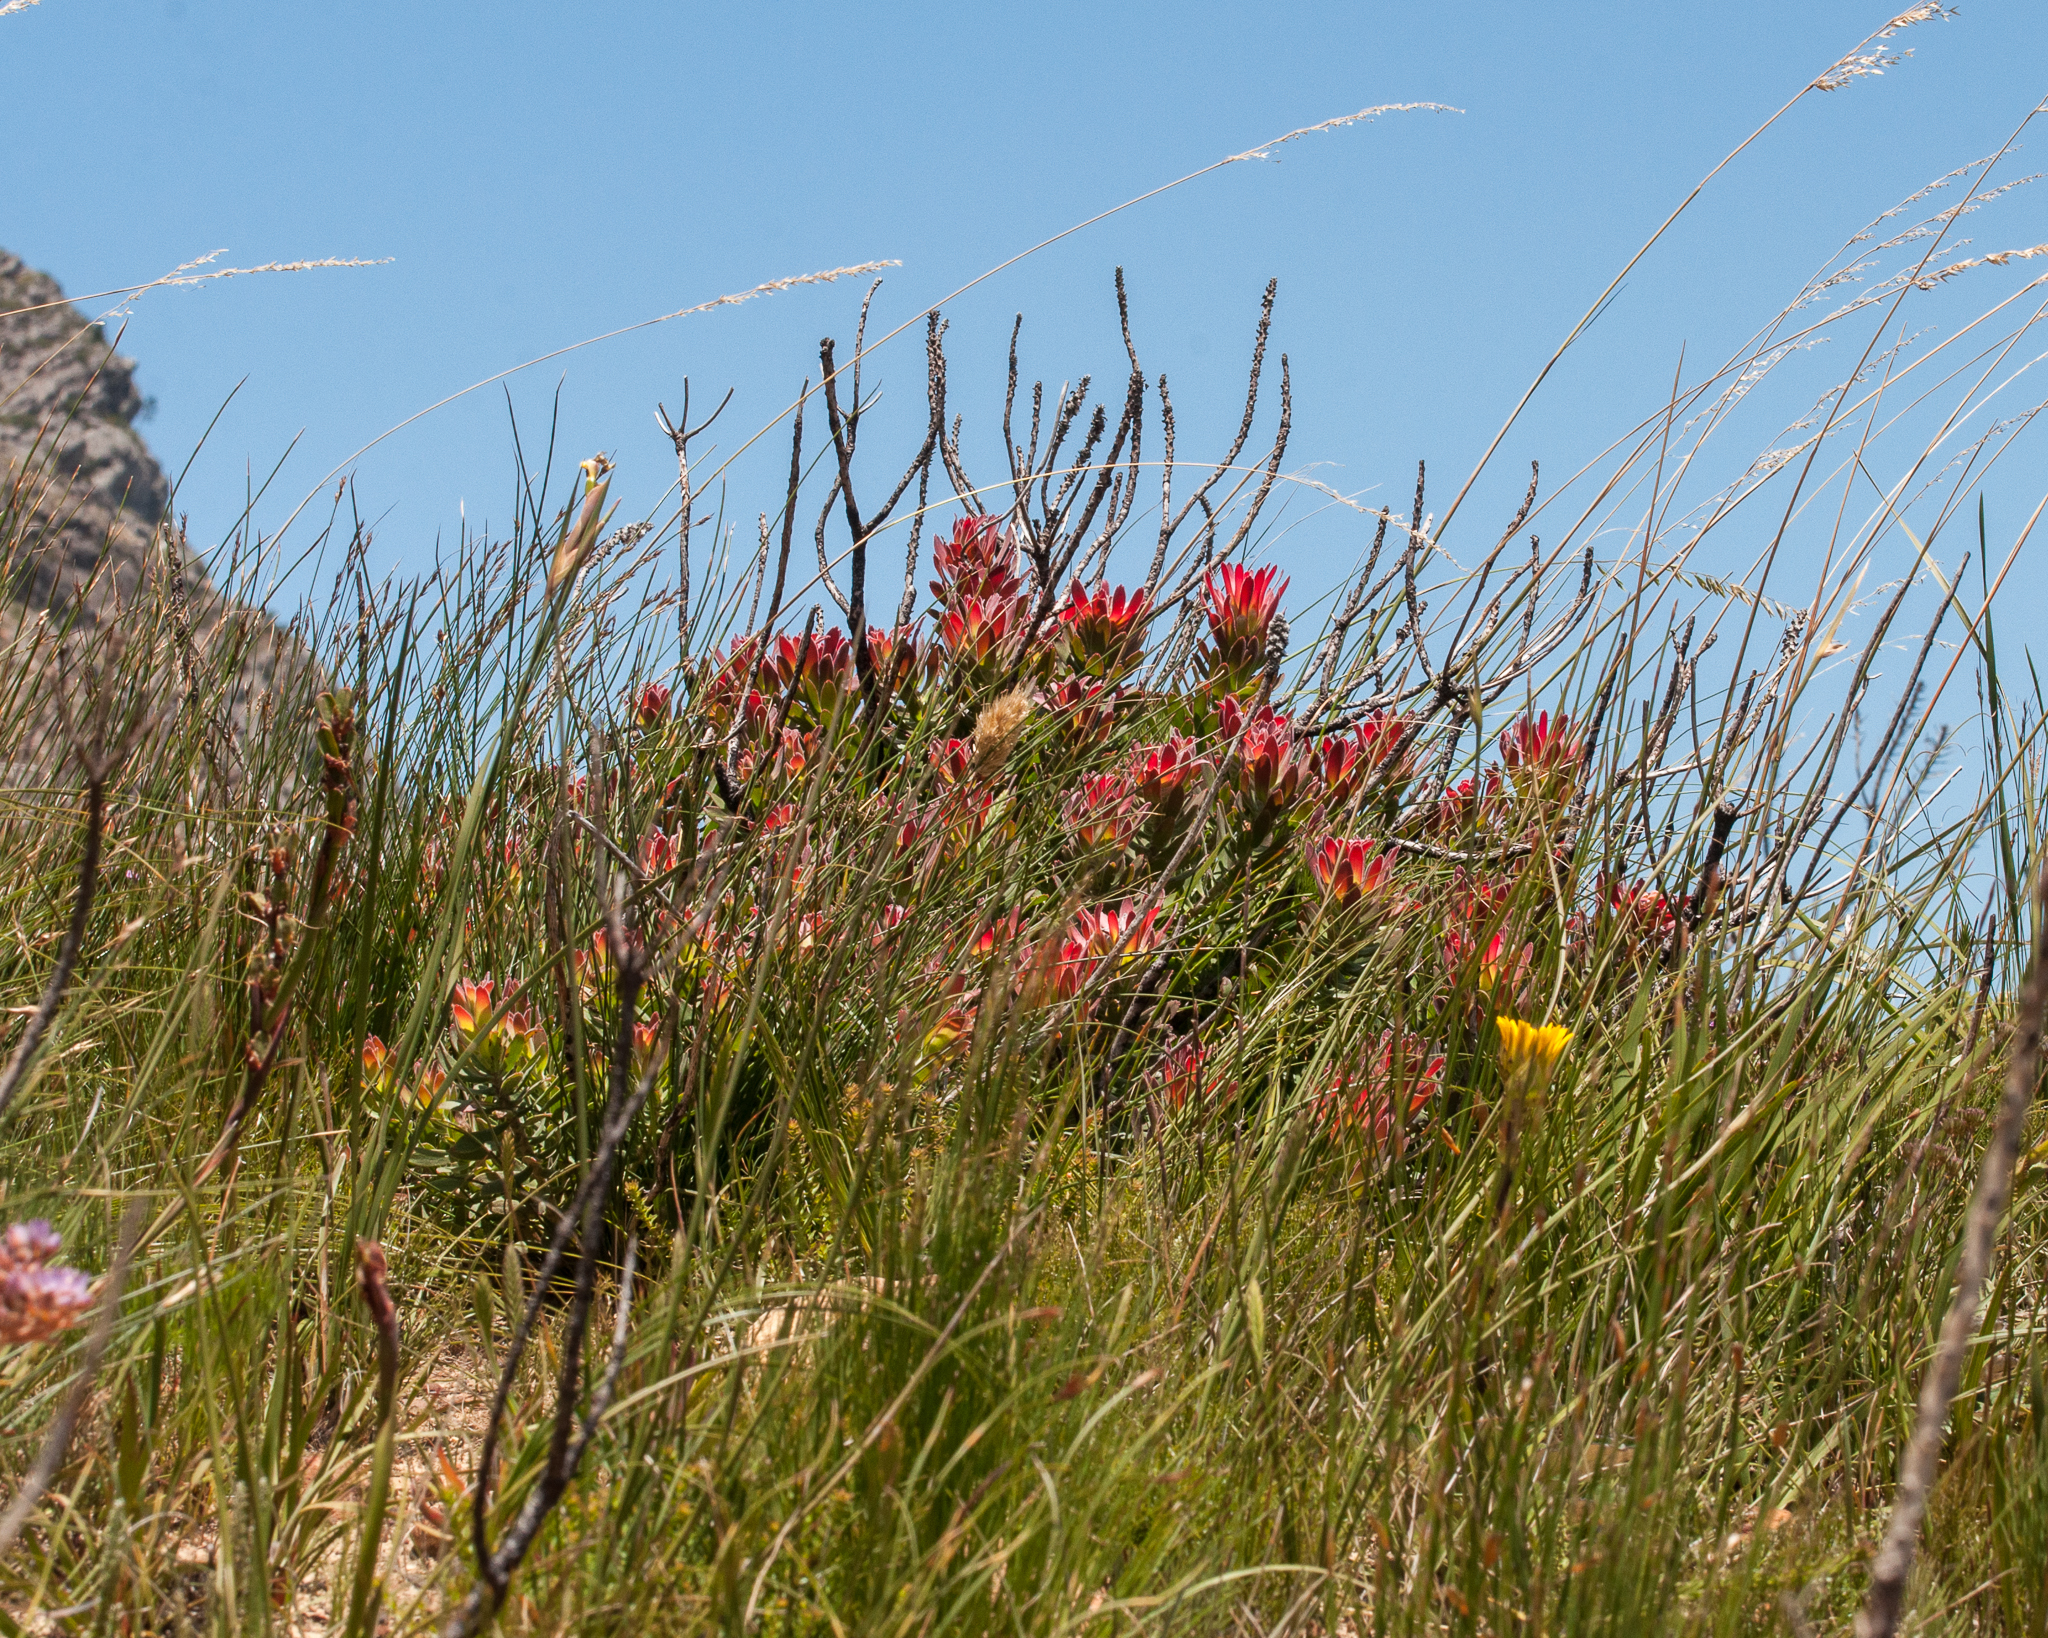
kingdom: Plantae
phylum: Tracheophyta
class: Magnoliopsida
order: Proteales
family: Proteaceae
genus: Mimetes
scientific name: Mimetes cucullatus
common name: Common pagoda
